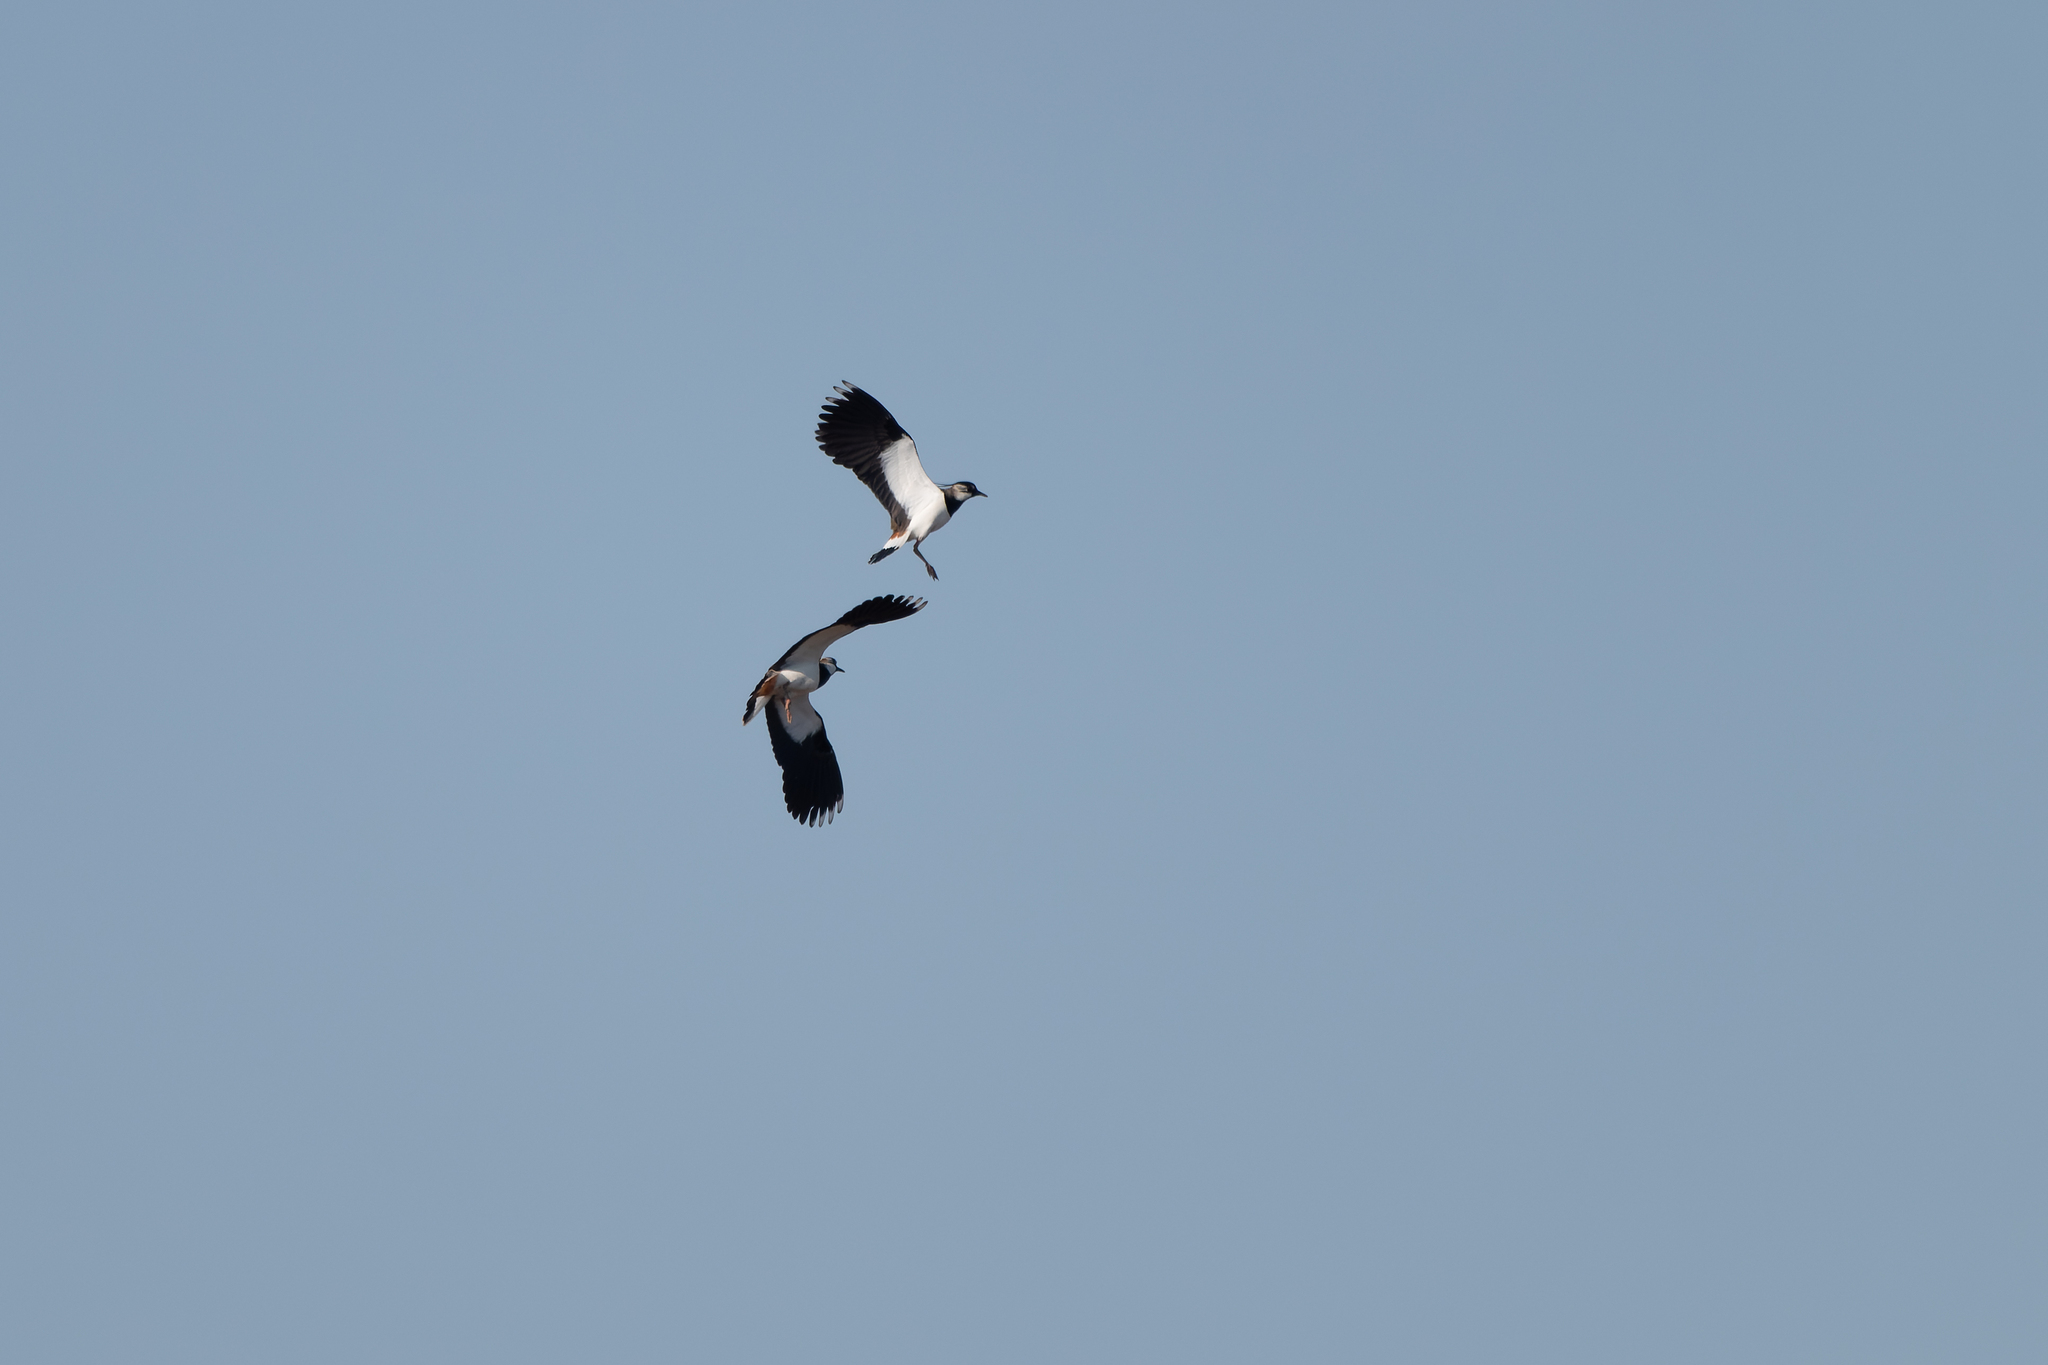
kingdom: Animalia
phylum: Chordata
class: Aves
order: Charadriiformes
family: Charadriidae
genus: Vanellus
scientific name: Vanellus vanellus
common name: Northern lapwing
